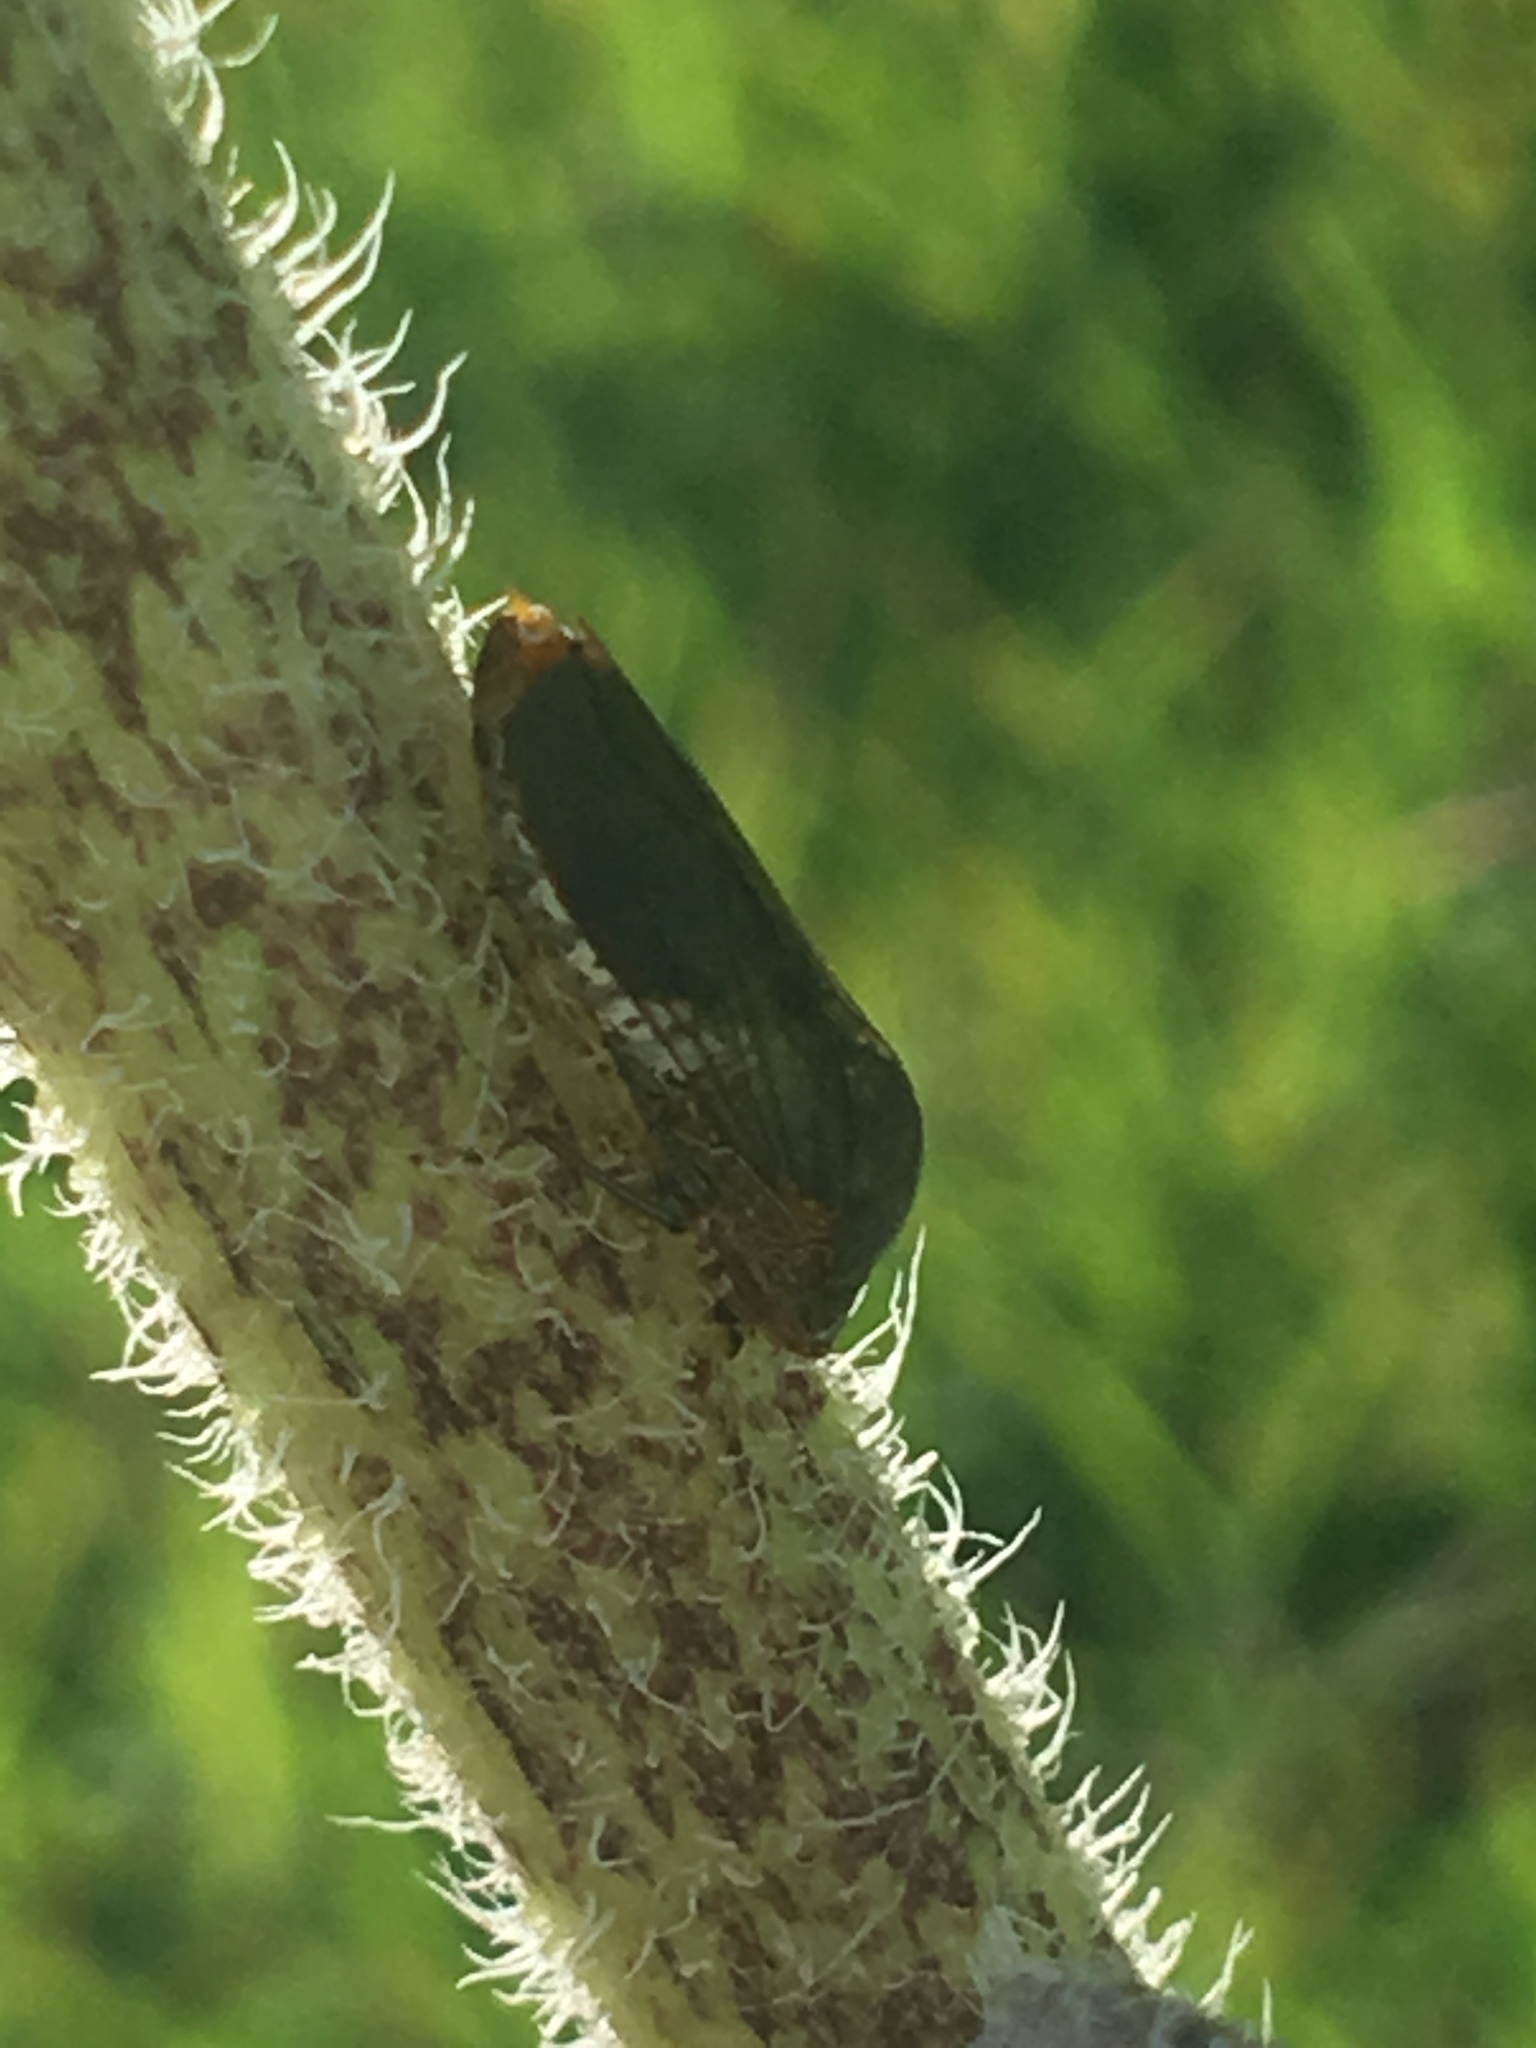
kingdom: Animalia
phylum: Arthropoda
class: Insecta
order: Hemiptera
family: Cicadellidae
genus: Homalodisca
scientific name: Homalodisca vitripennis
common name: Glassy-winged sharpshooter
